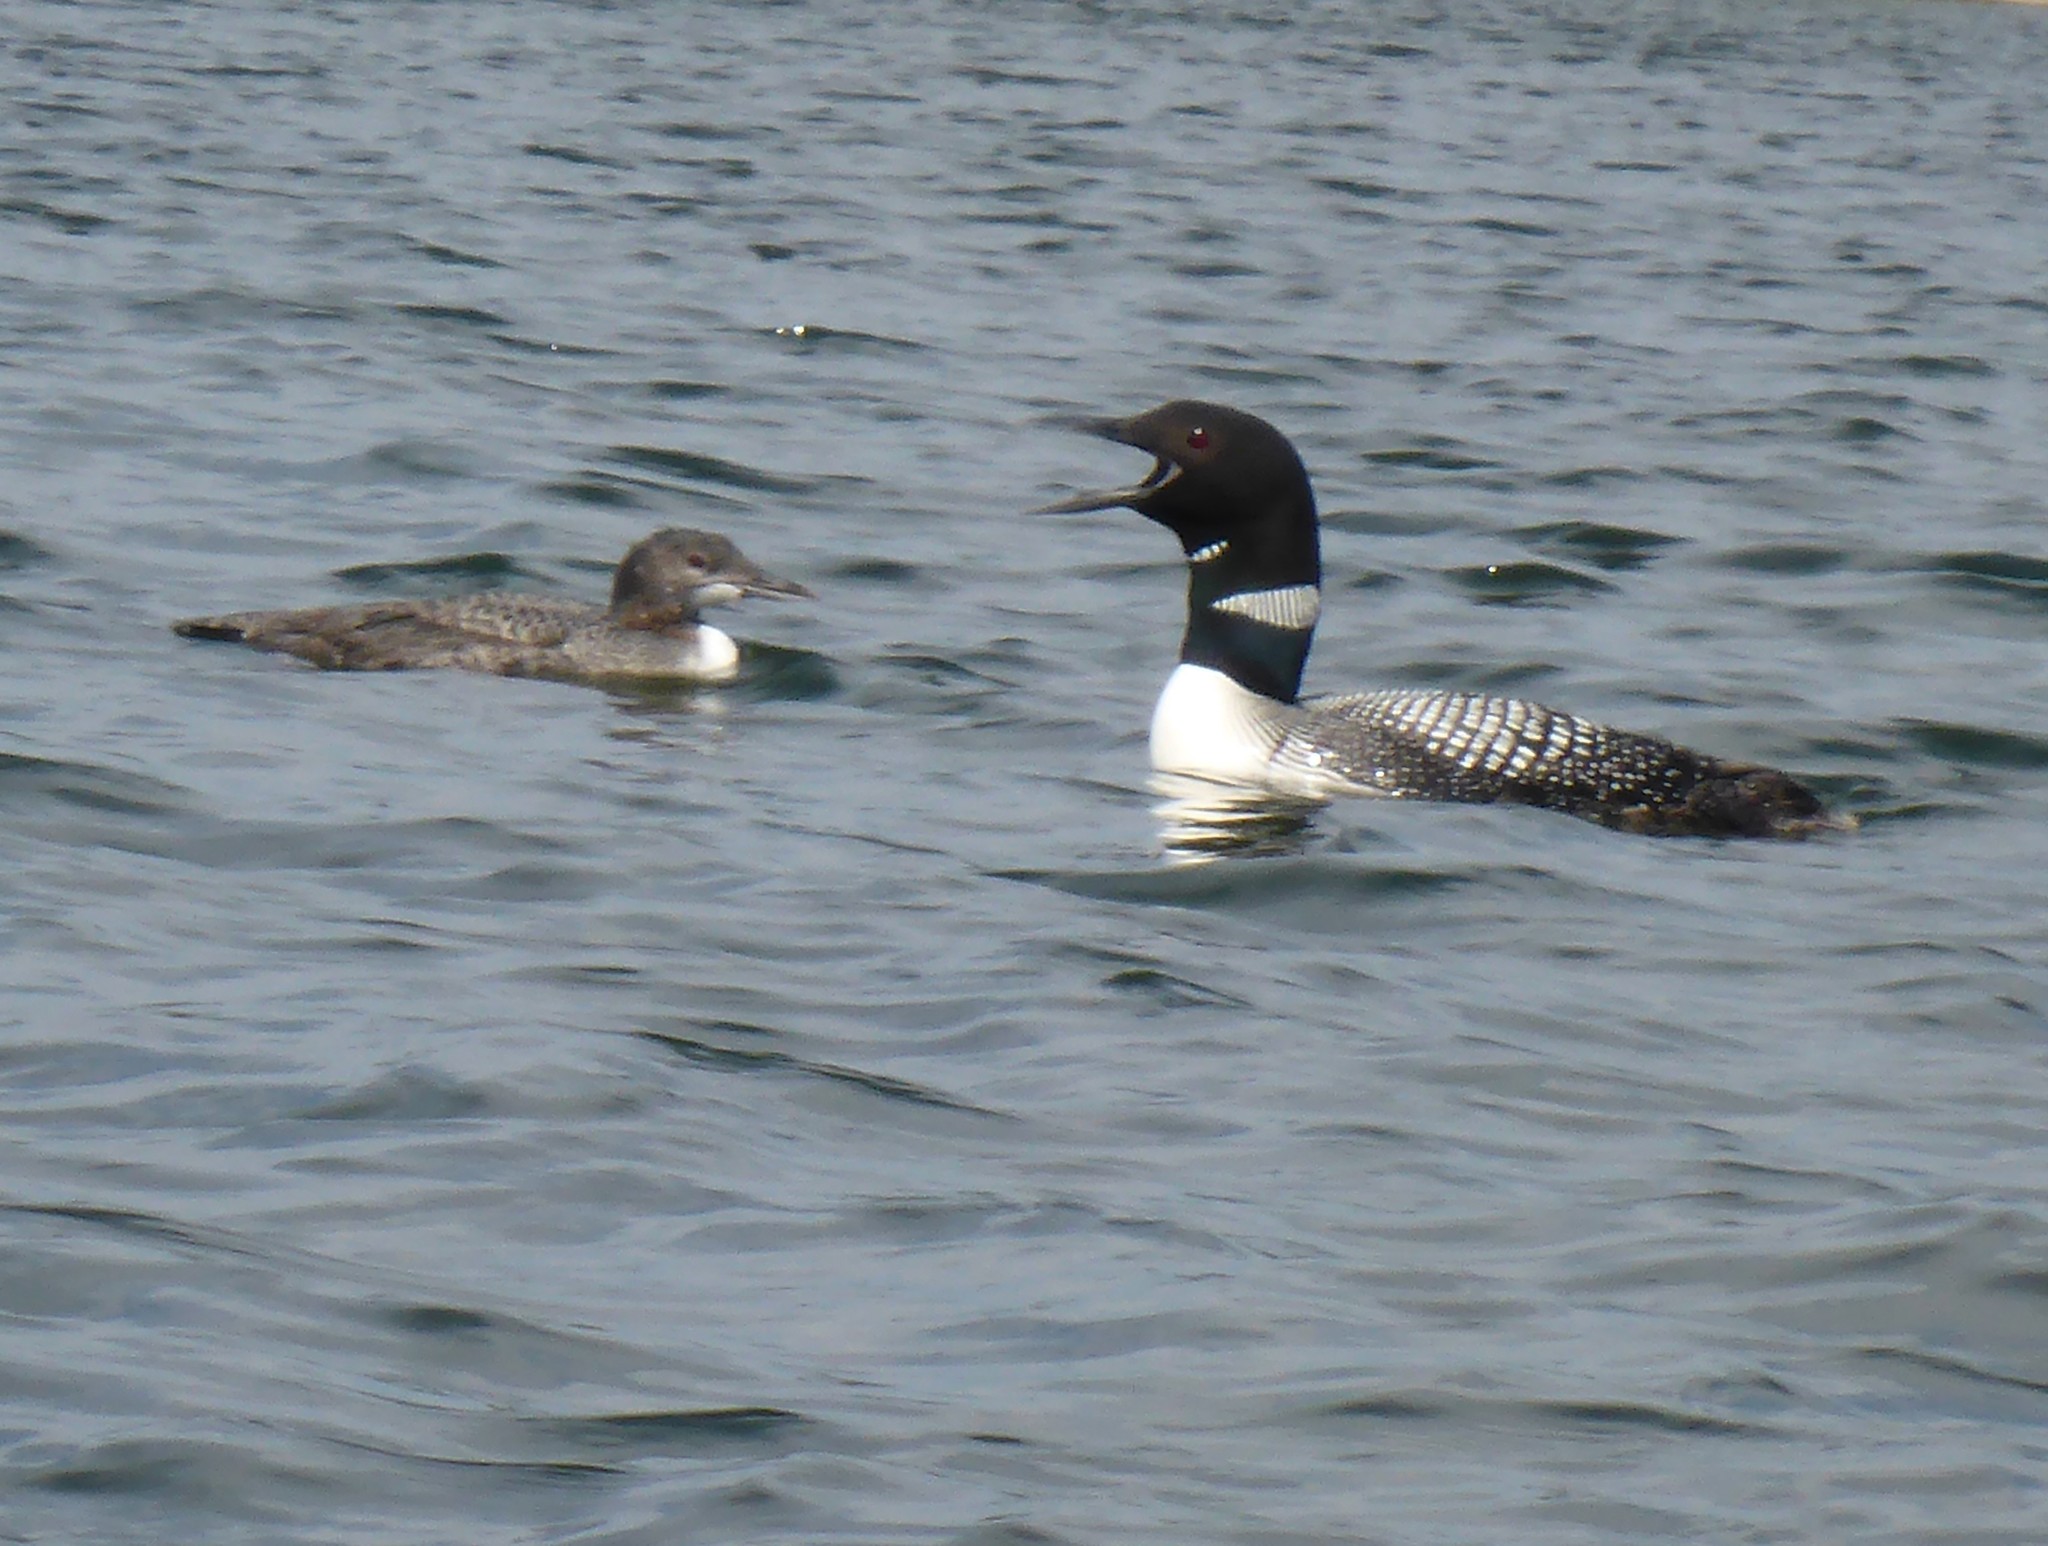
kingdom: Animalia
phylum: Chordata
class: Aves
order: Gaviiformes
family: Gaviidae
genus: Gavia
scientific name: Gavia immer
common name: Common loon
